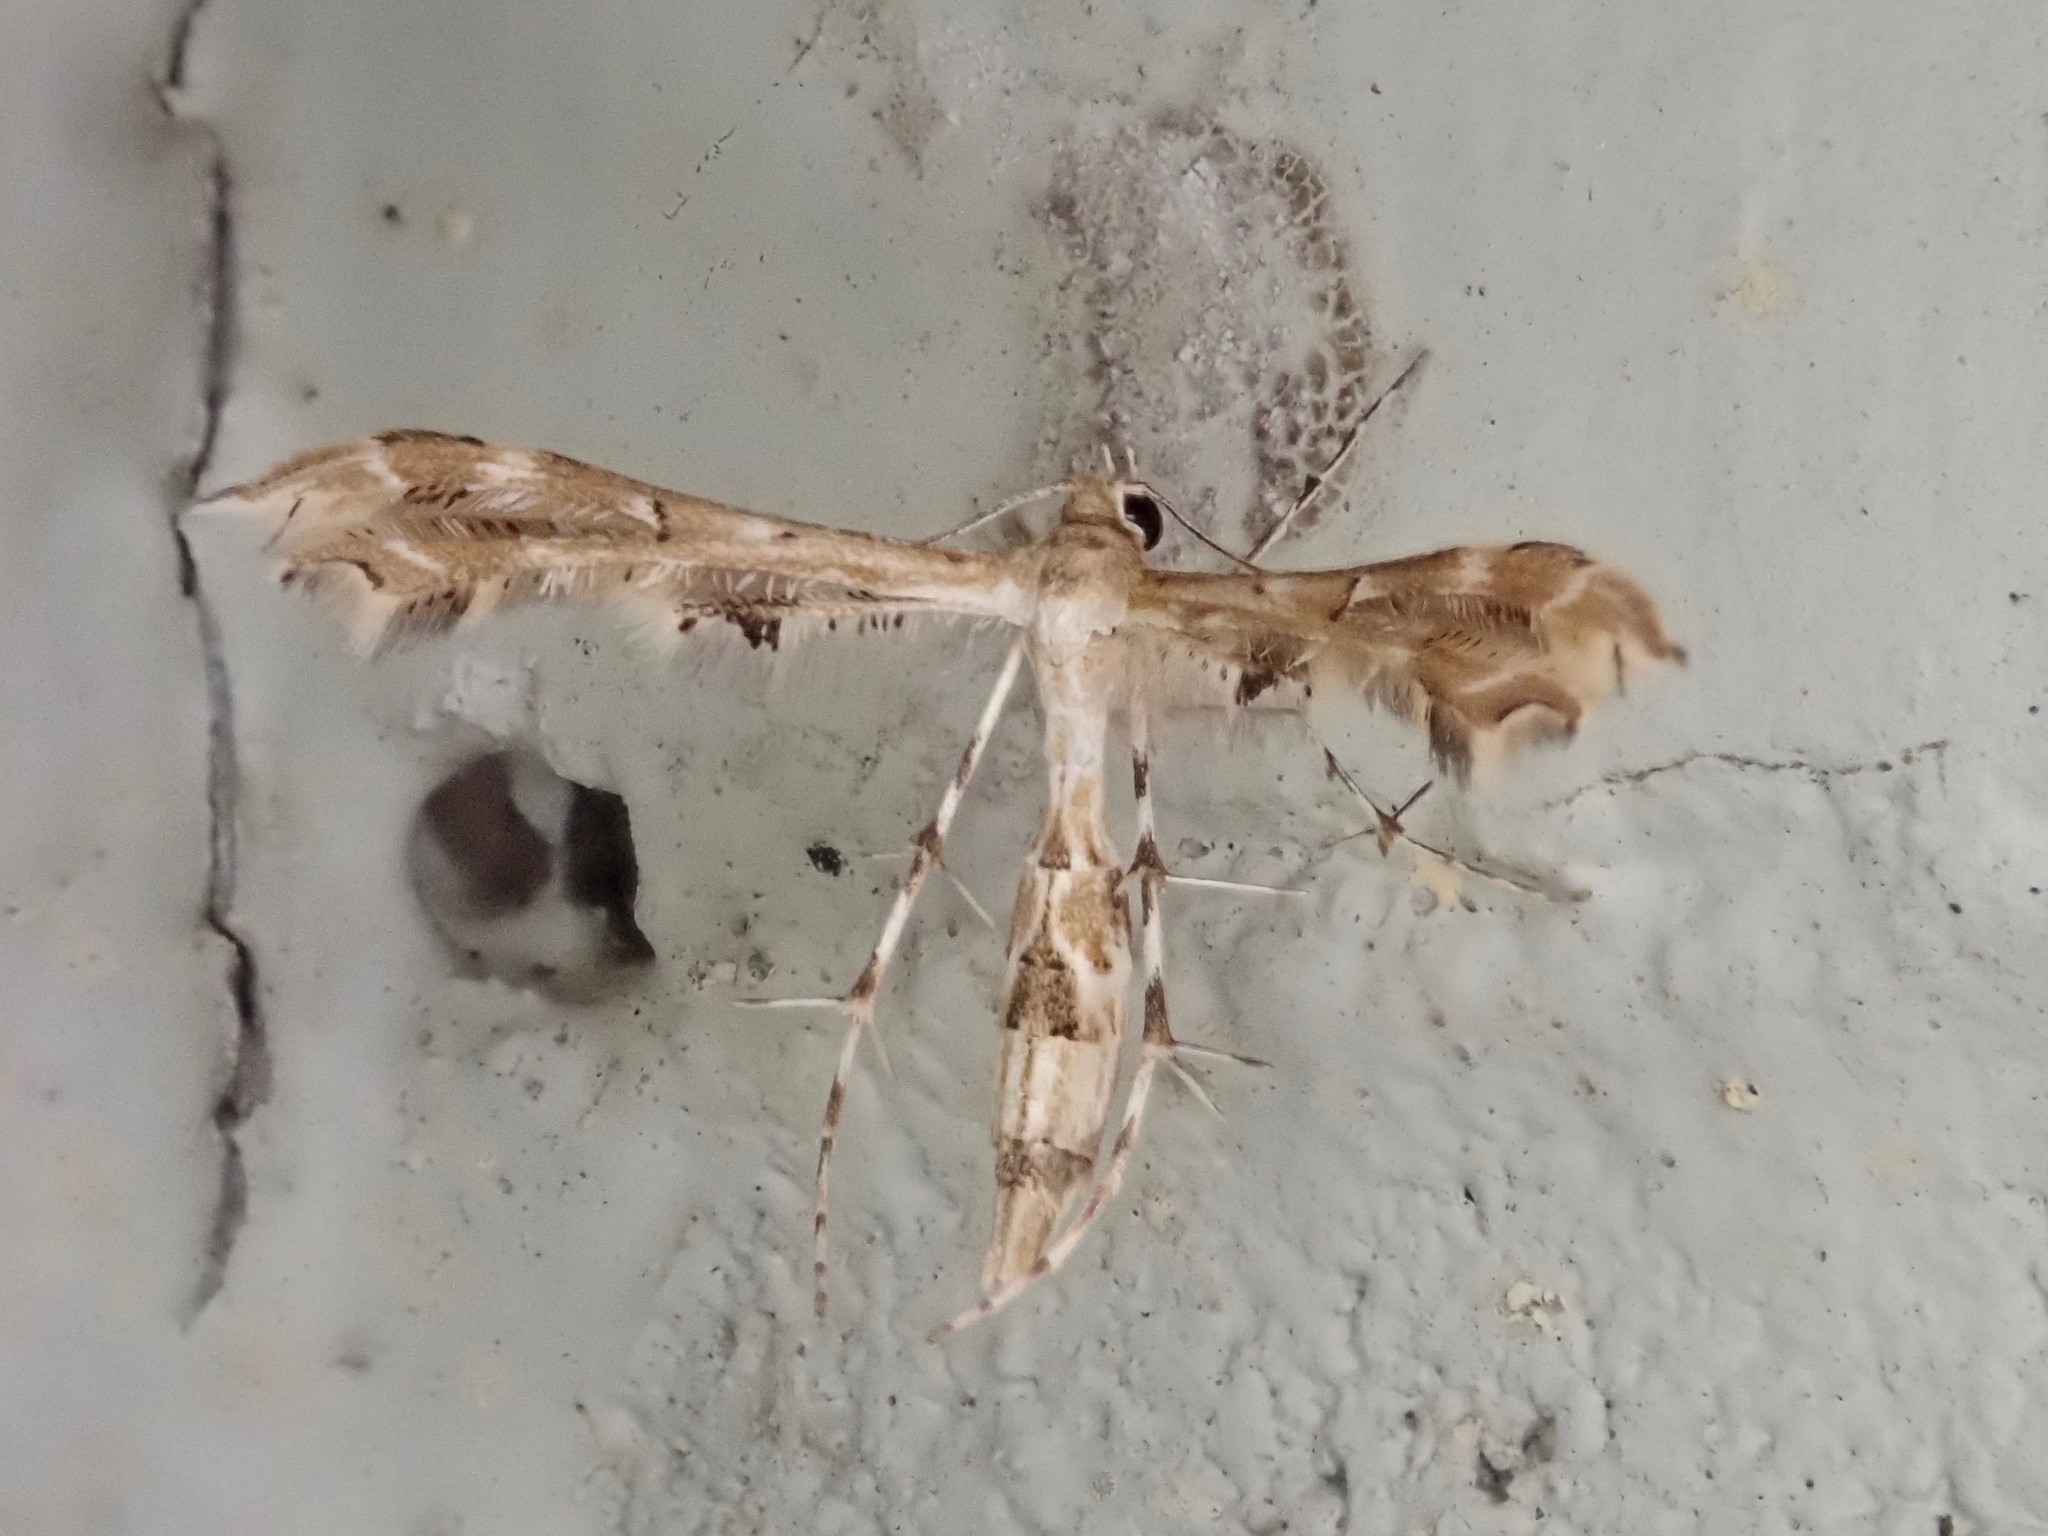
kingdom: Animalia
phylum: Arthropoda
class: Insecta
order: Lepidoptera
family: Pterophoridae
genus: Sphenarches
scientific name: Sphenarches anisodactylus
